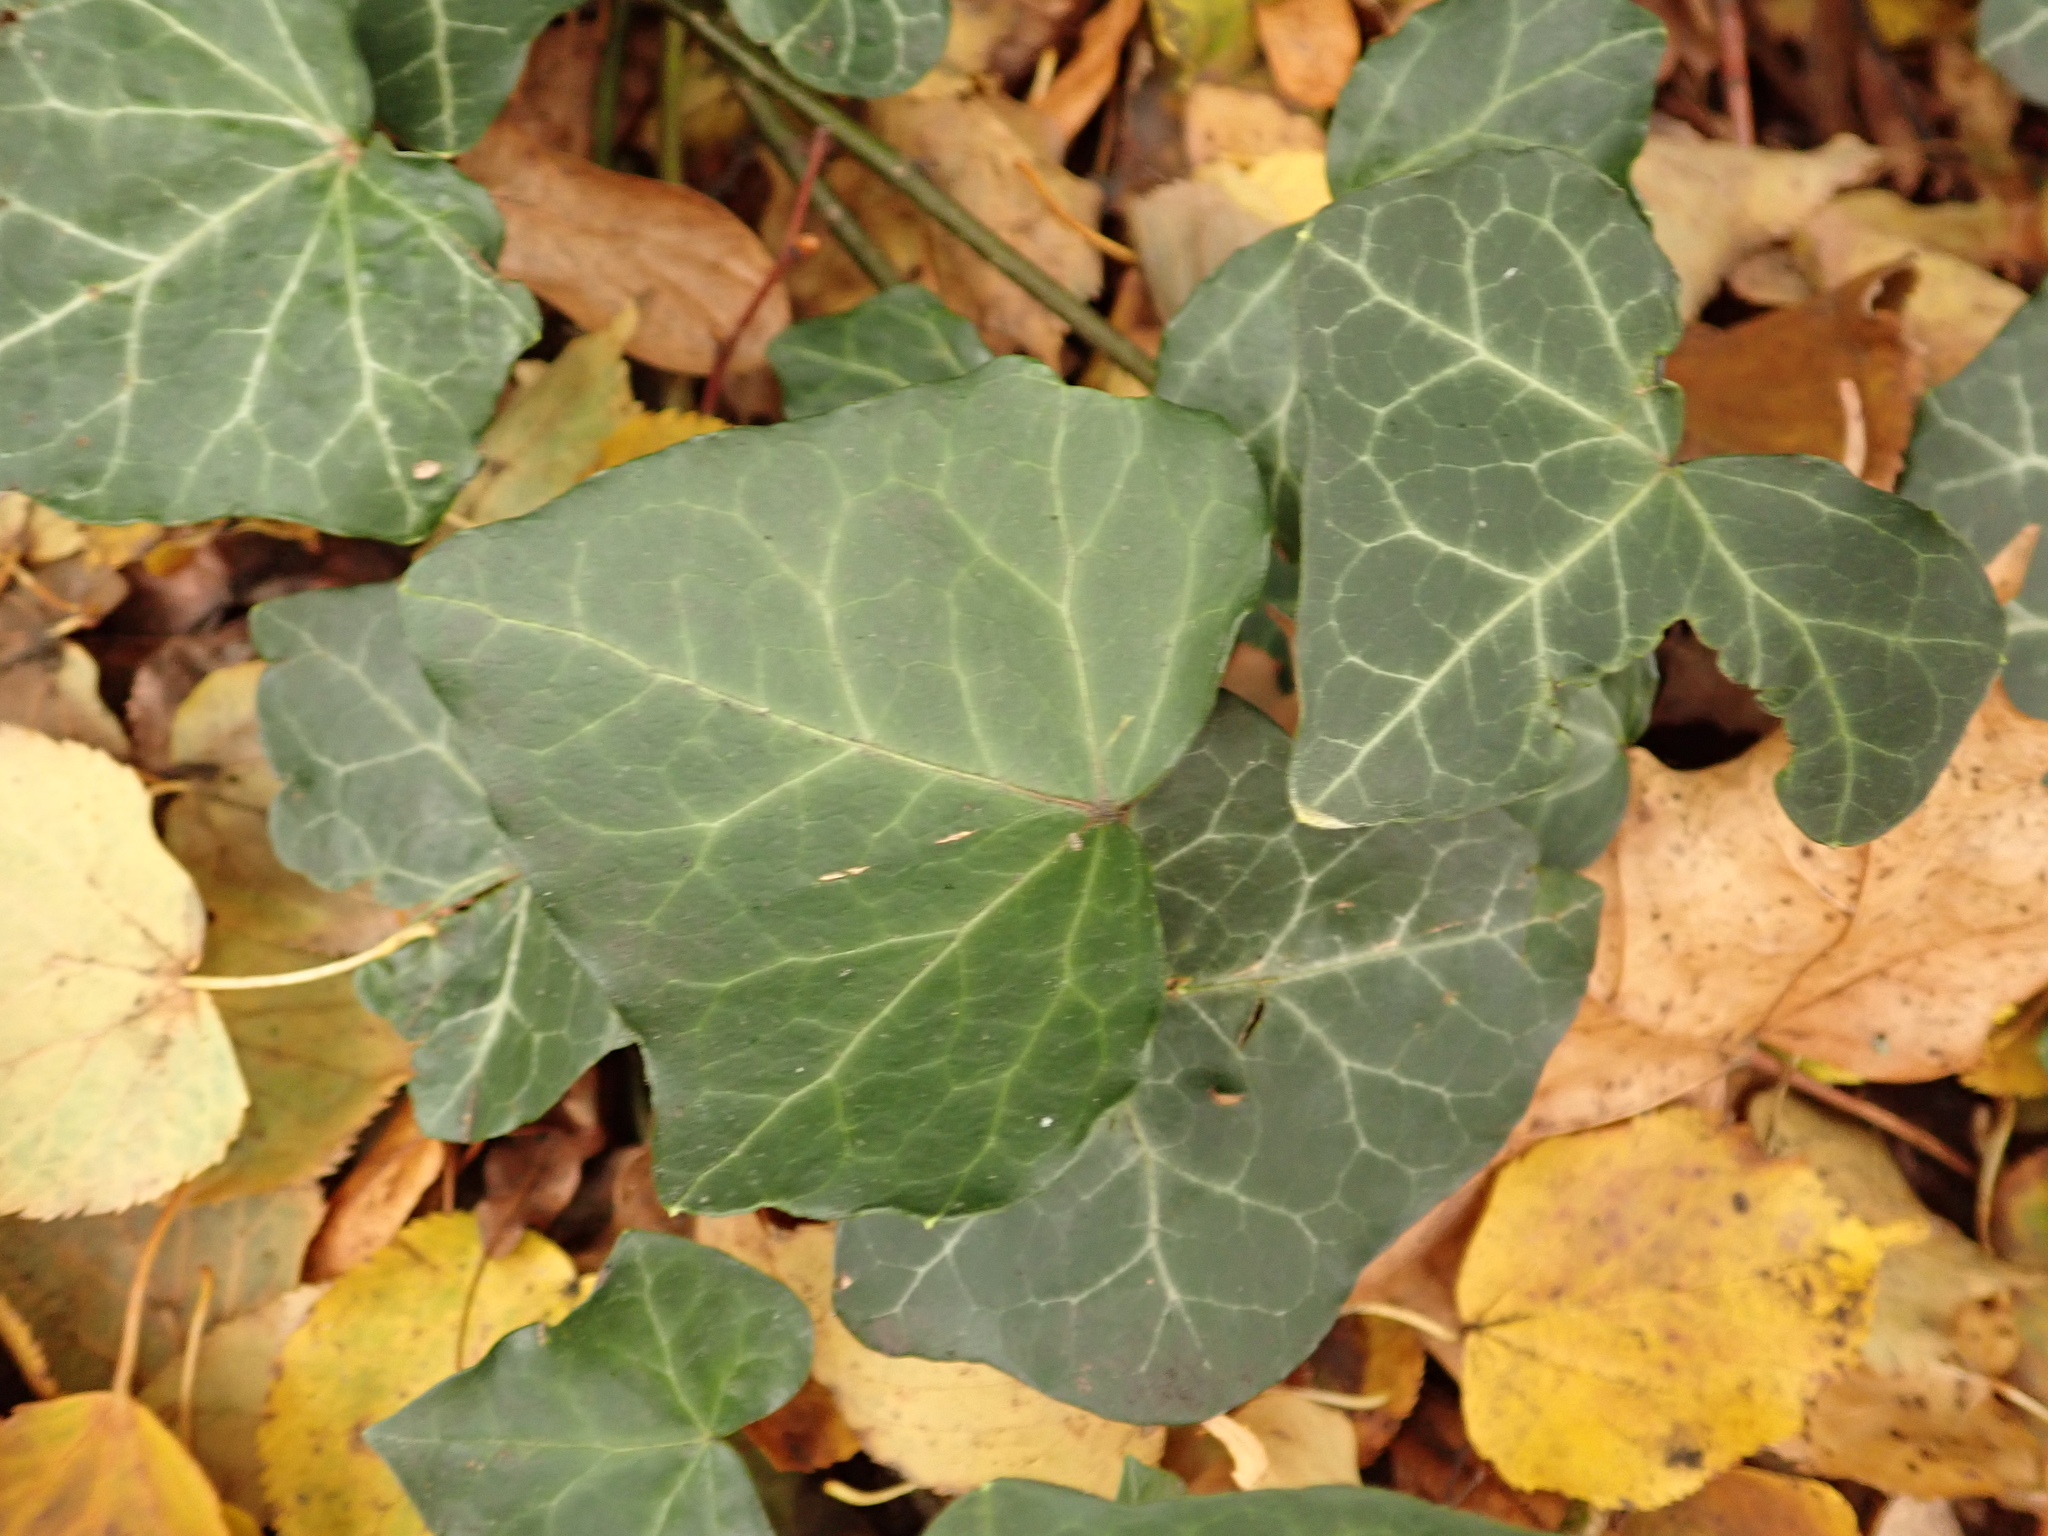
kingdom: Plantae
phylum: Tracheophyta
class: Magnoliopsida
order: Apiales
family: Araliaceae
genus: Hedera
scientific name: Hedera helix
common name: Ivy
